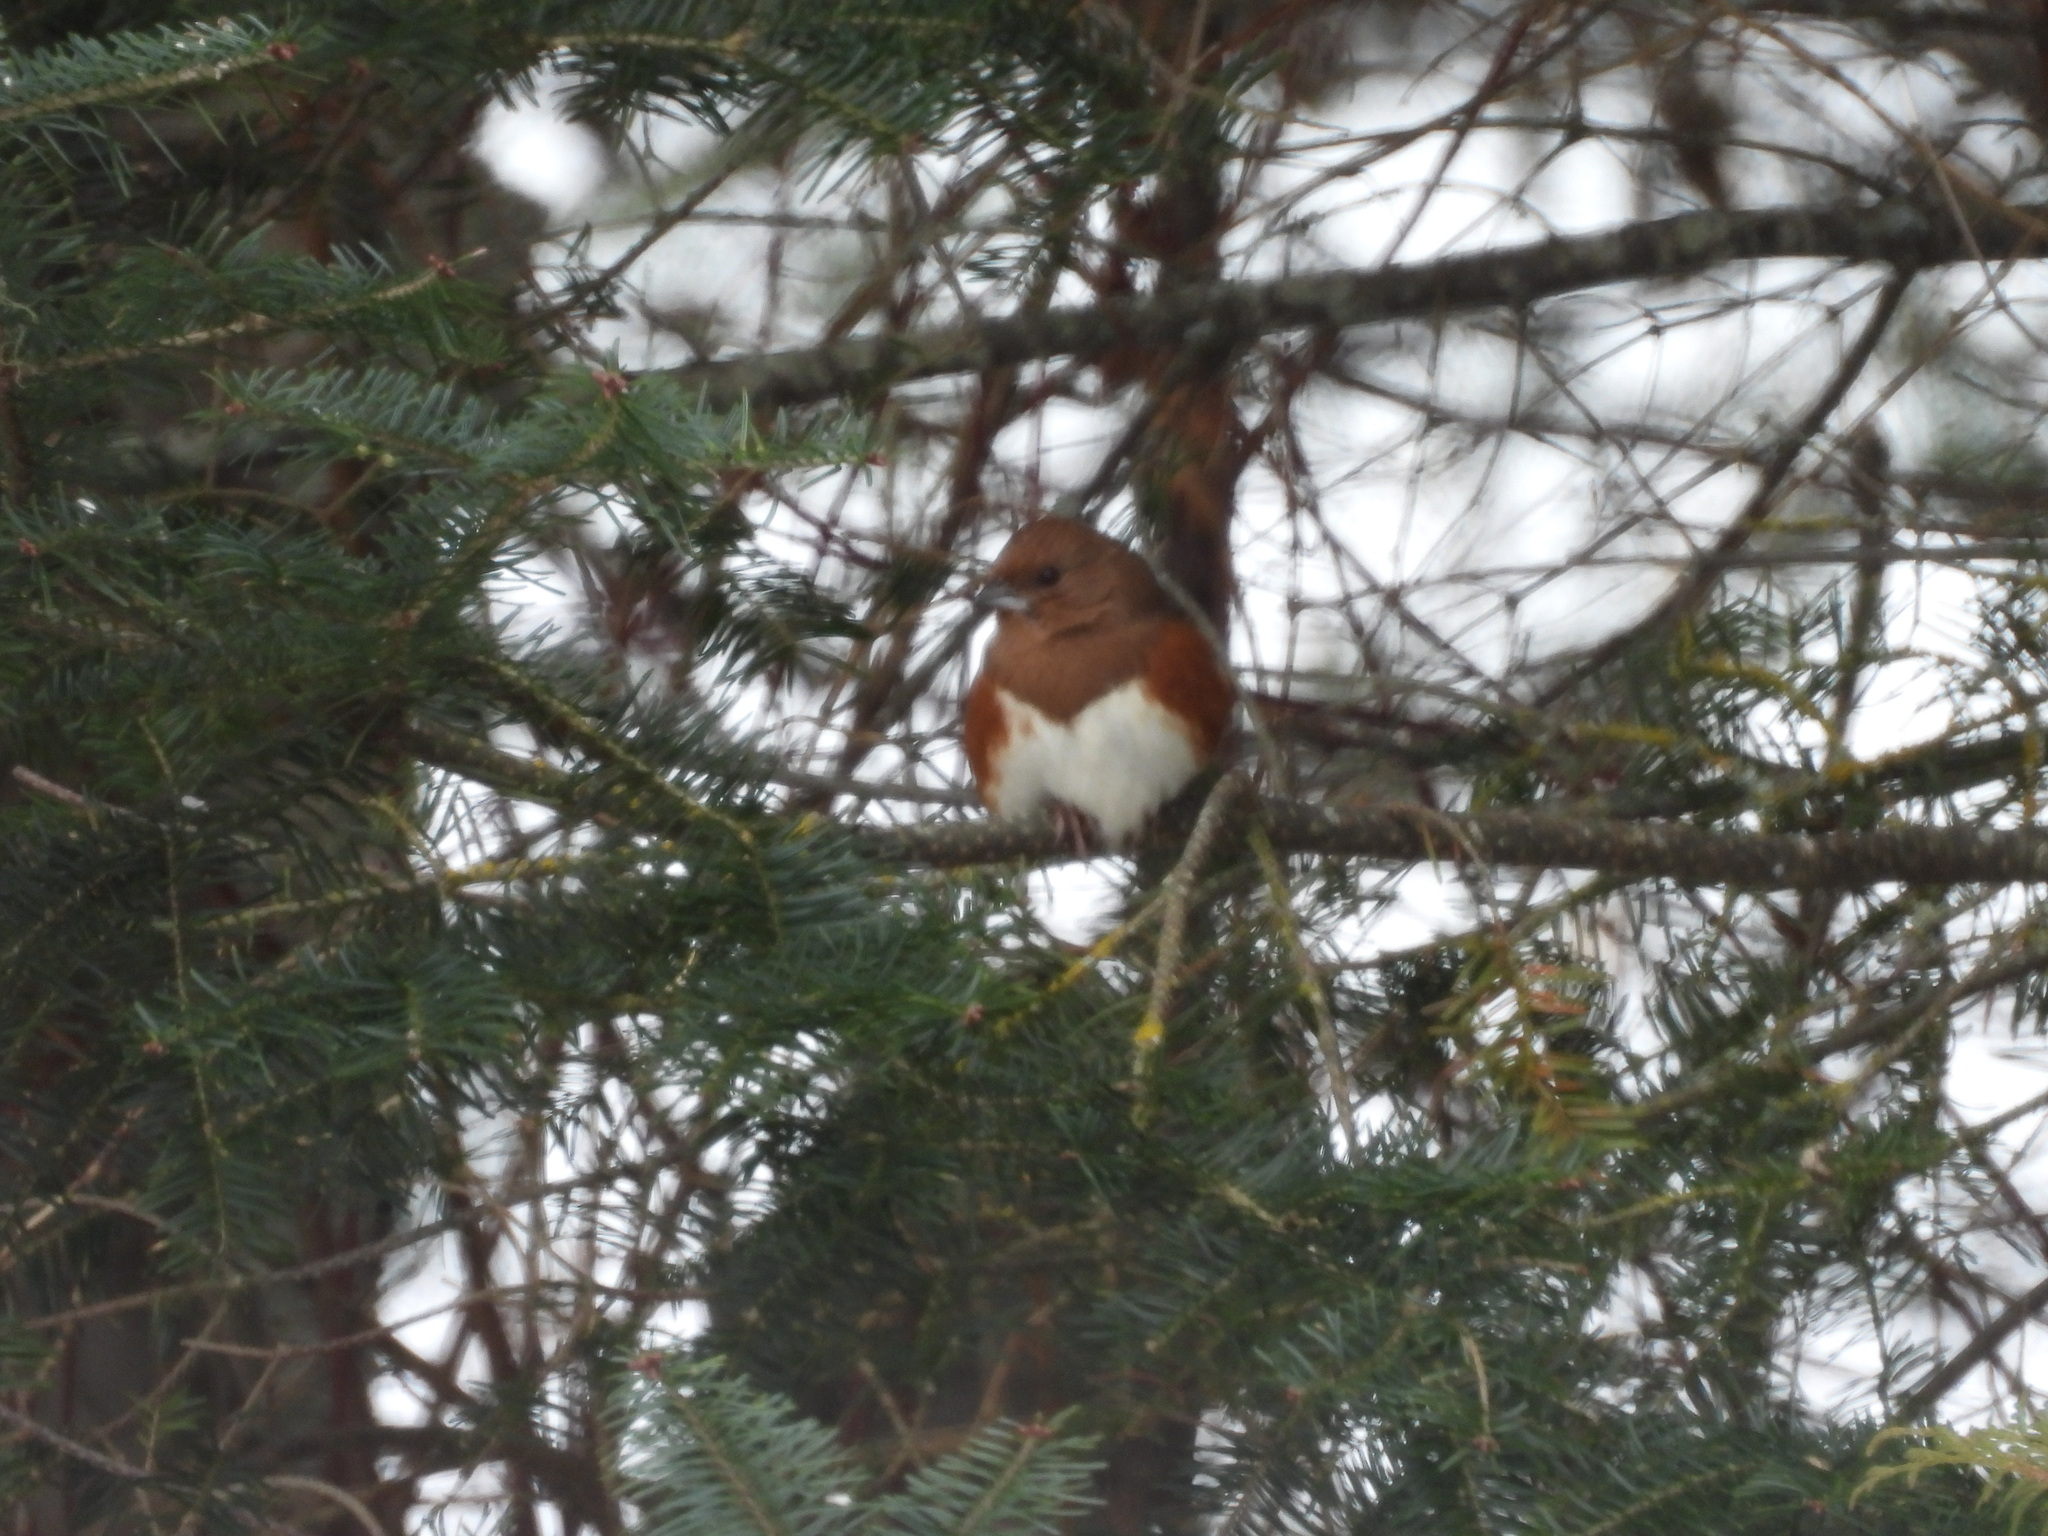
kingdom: Animalia
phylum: Chordata
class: Aves
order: Passeriformes
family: Passerellidae
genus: Pipilo
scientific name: Pipilo erythrophthalmus
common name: Eastern towhee
